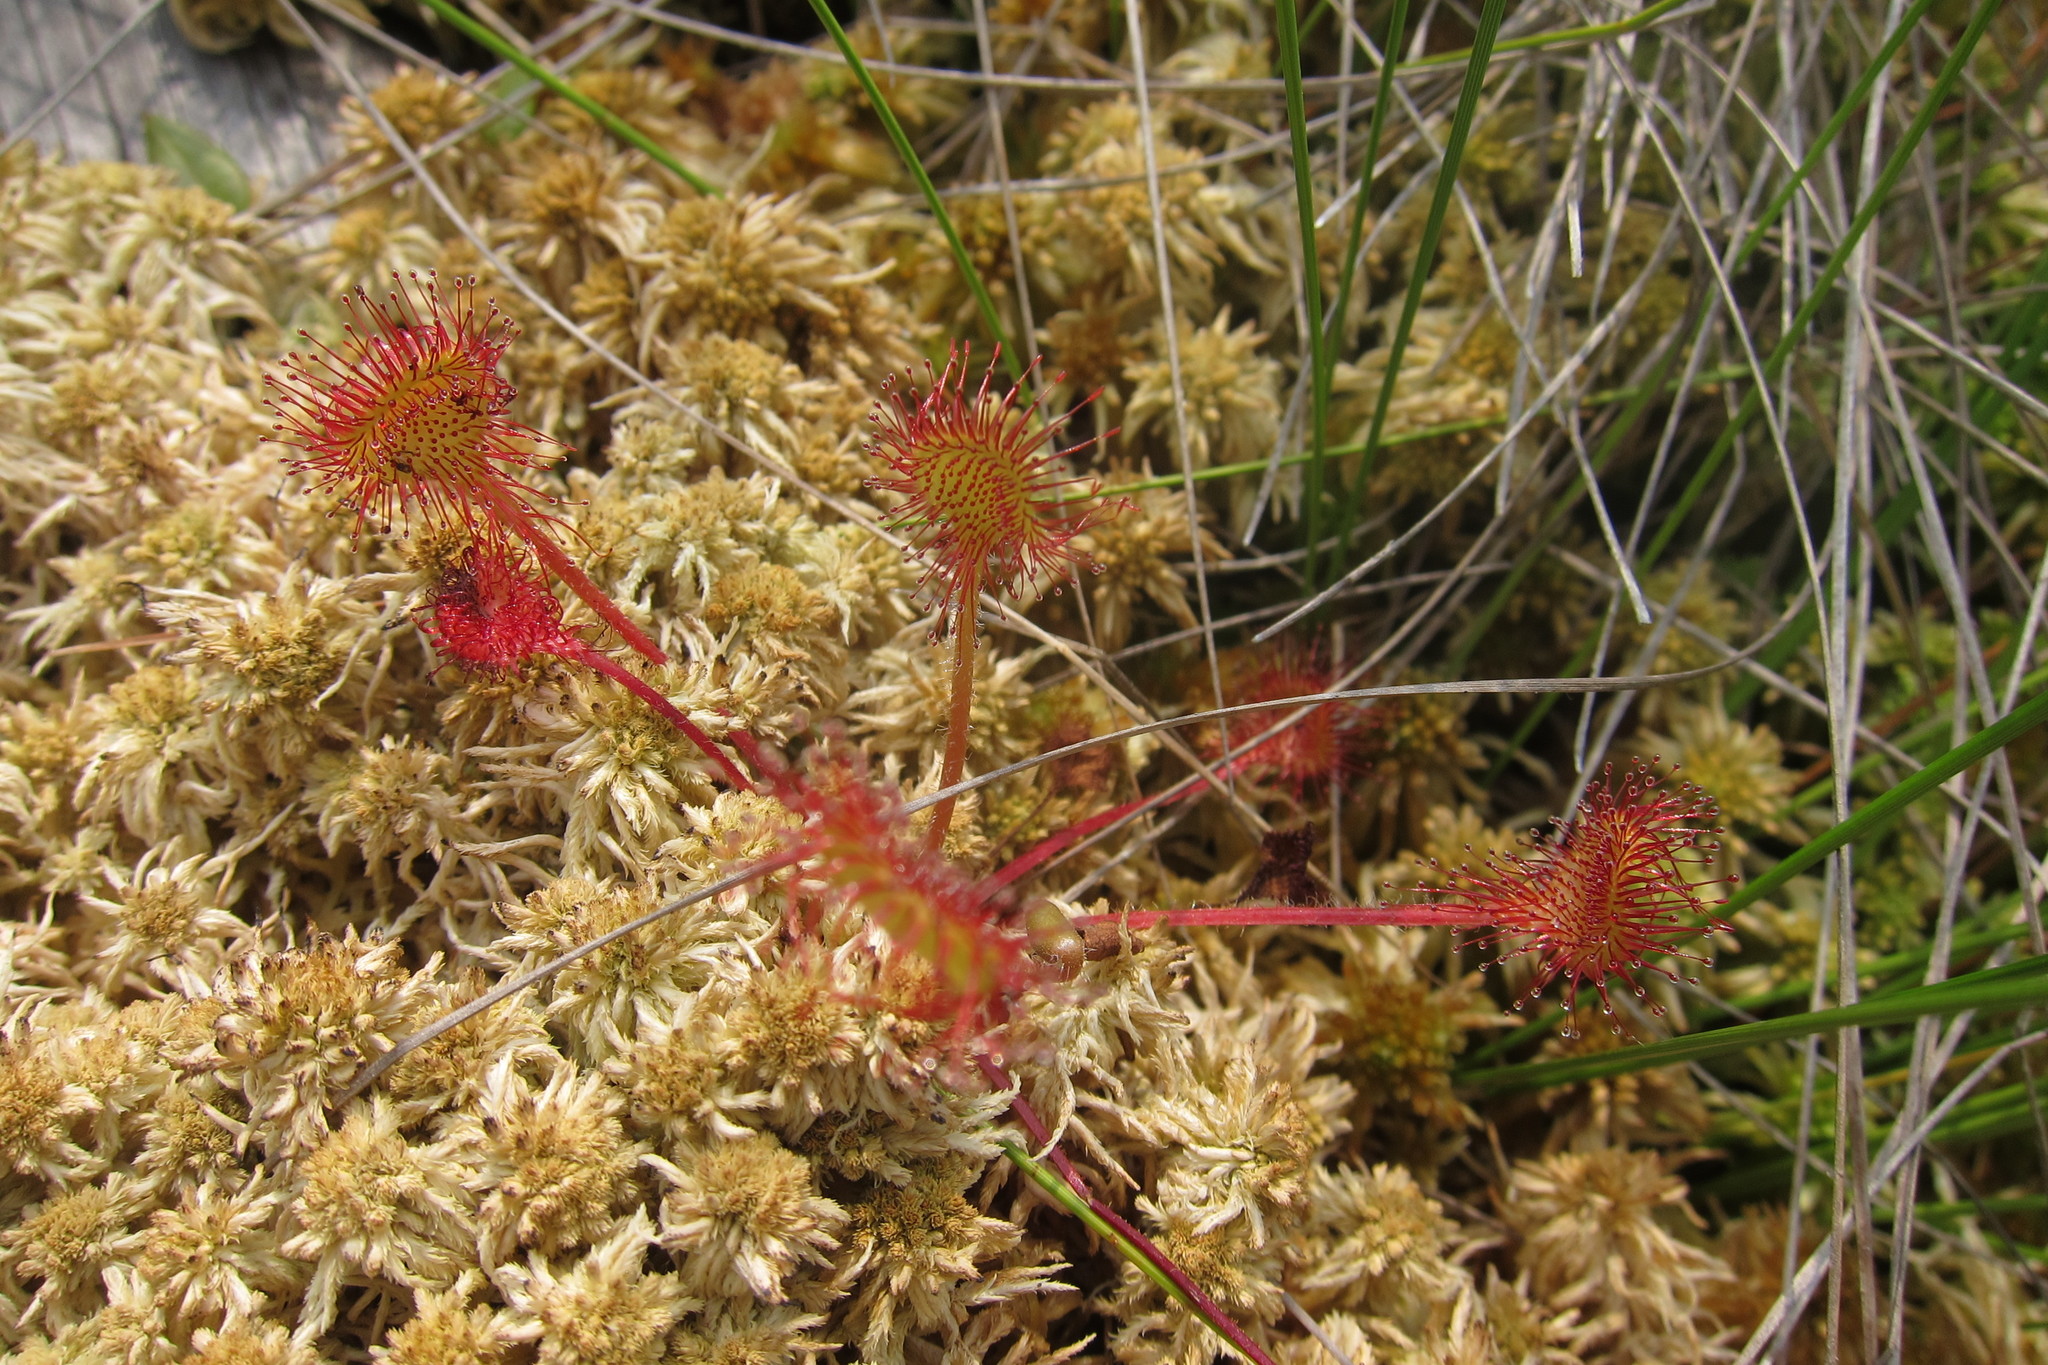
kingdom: Plantae
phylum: Tracheophyta
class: Magnoliopsida
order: Caryophyllales
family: Droseraceae
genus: Drosera
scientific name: Drosera rotundifolia
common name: Round-leaved sundew
